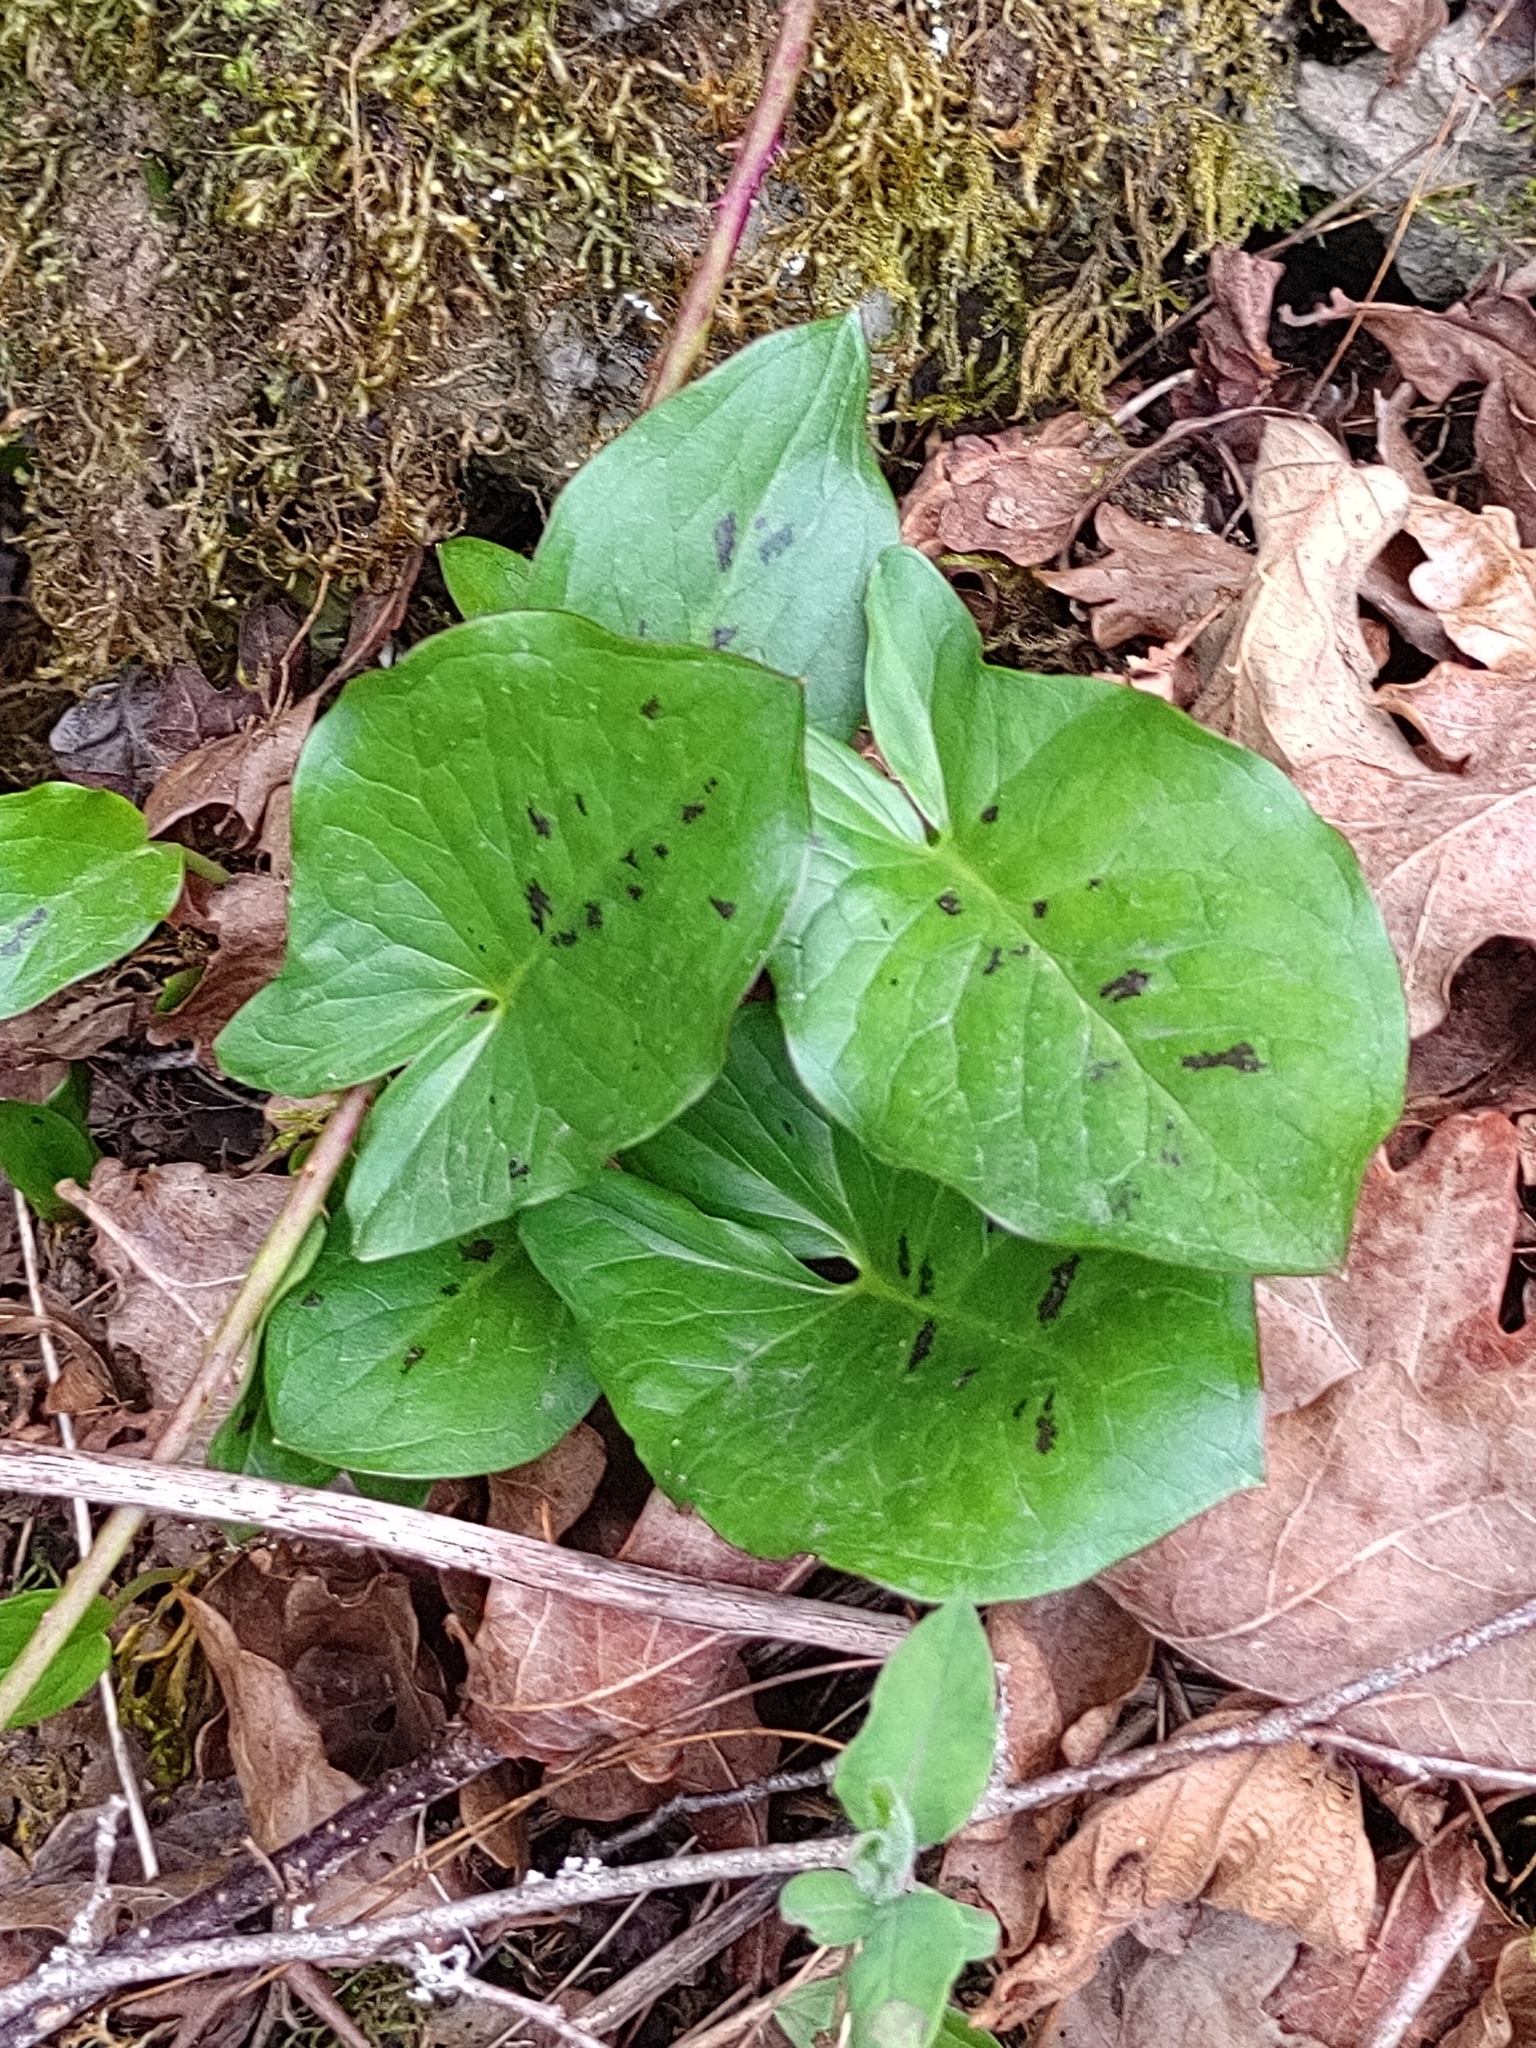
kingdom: Plantae
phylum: Tracheophyta
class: Liliopsida
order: Alismatales
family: Araceae
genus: Arum
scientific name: Arum maculatum
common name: Lords-and-ladies
